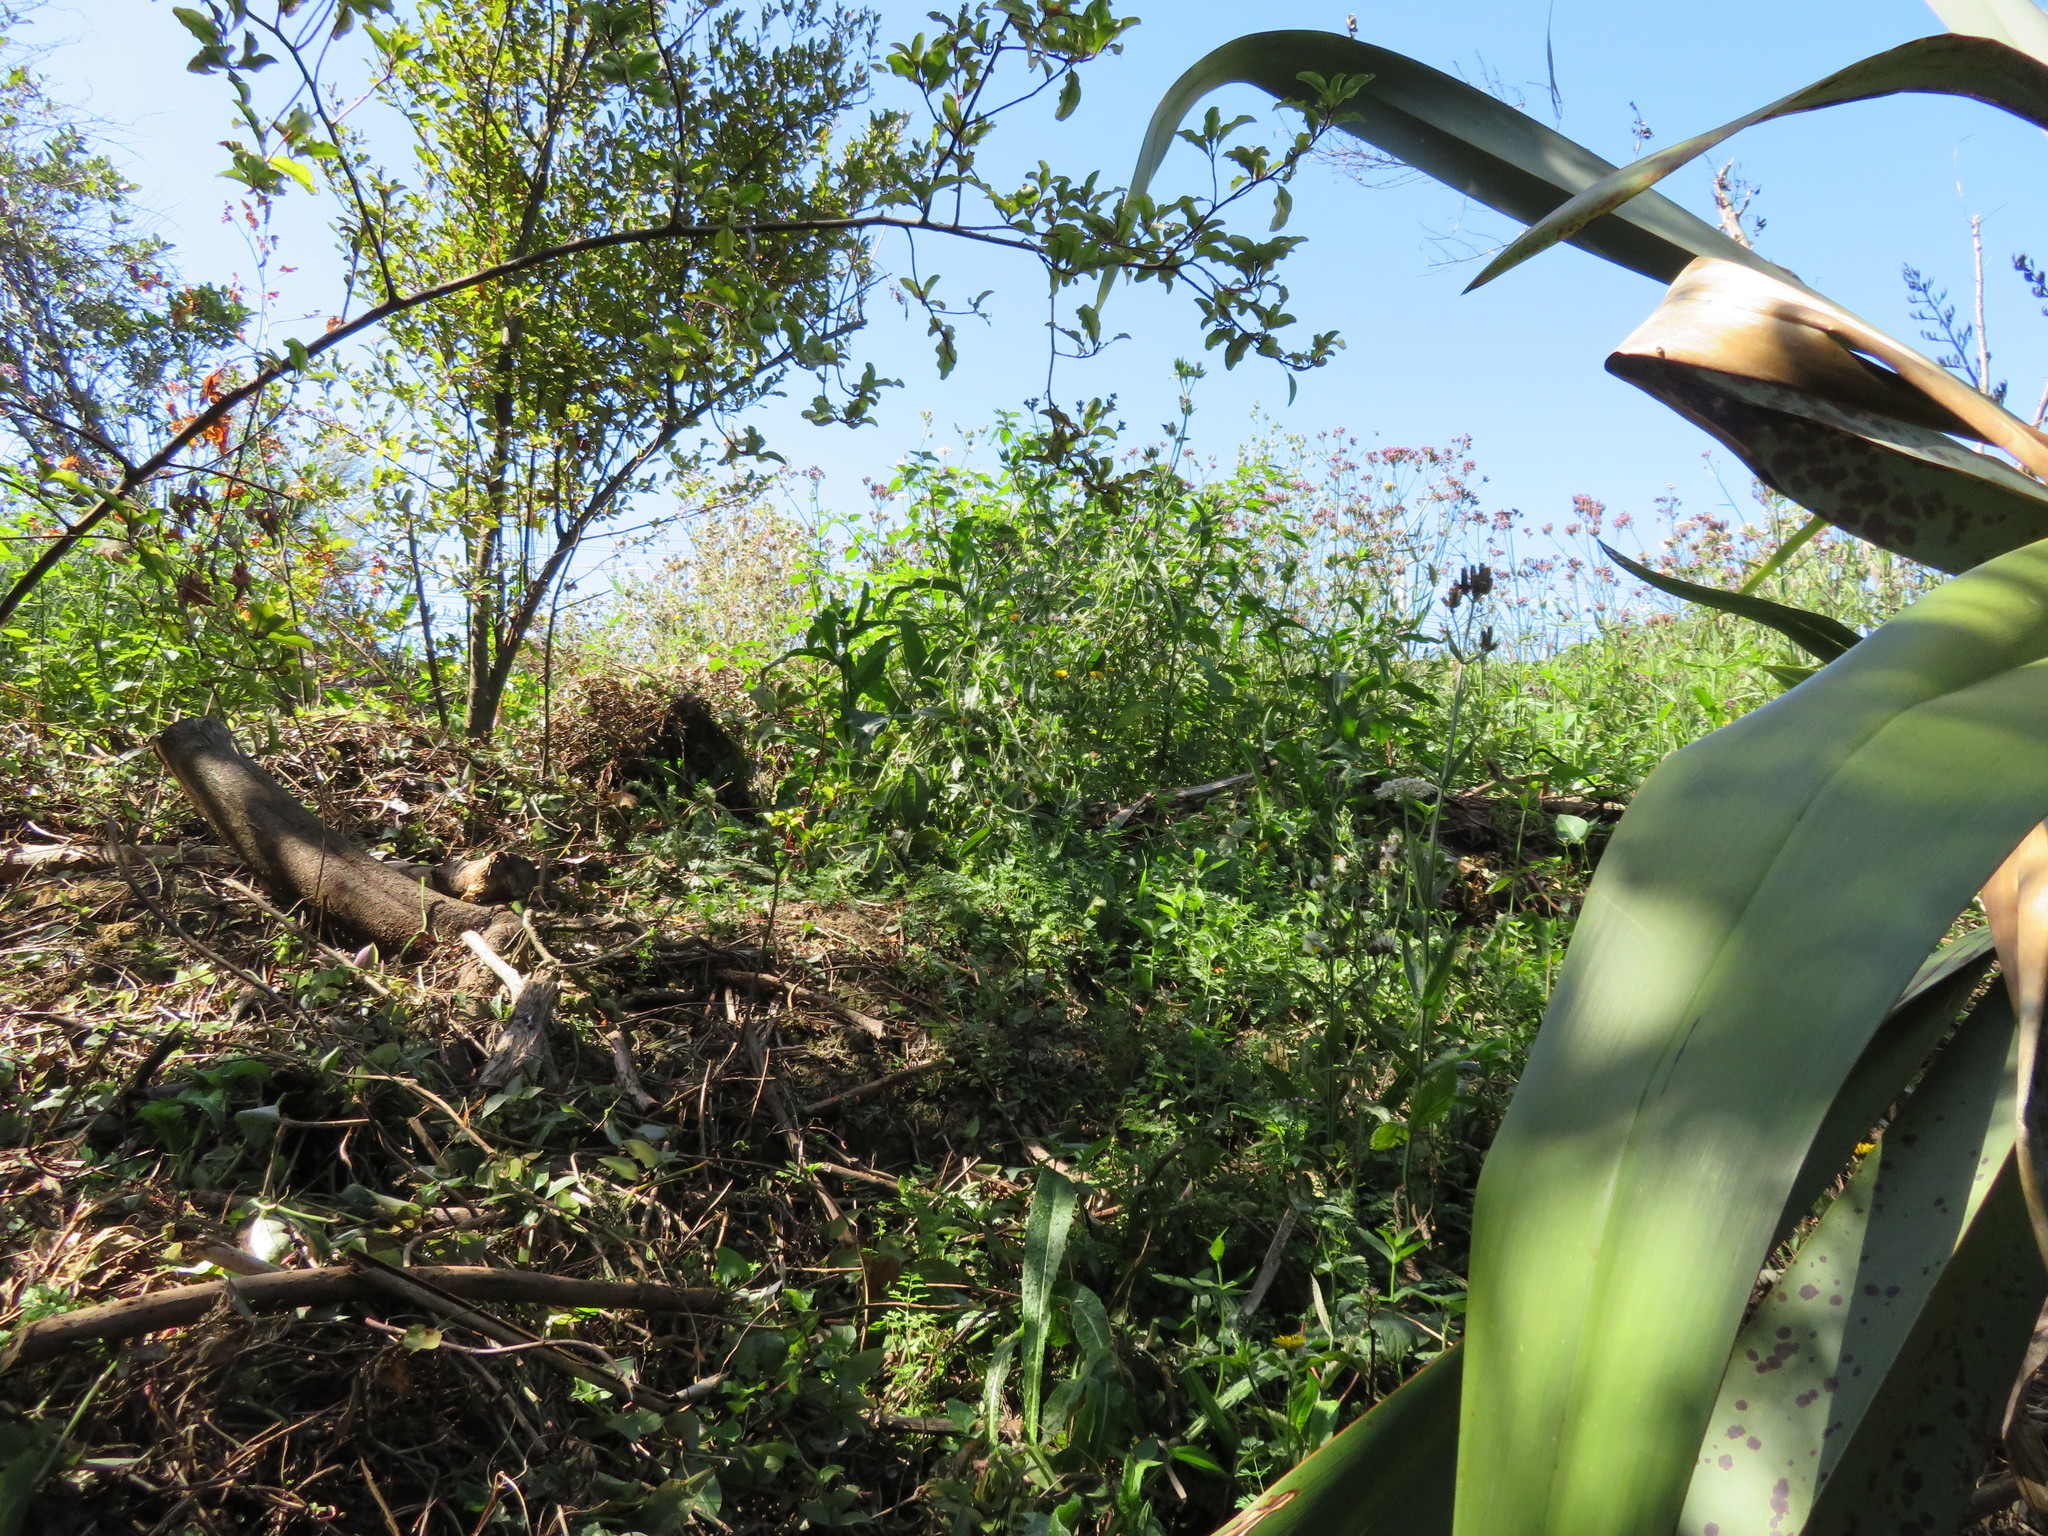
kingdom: Plantae
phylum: Tracheophyta
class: Magnoliopsida
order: Ericales
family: Primulaceae
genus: Myrsine
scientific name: Myrsine australis
